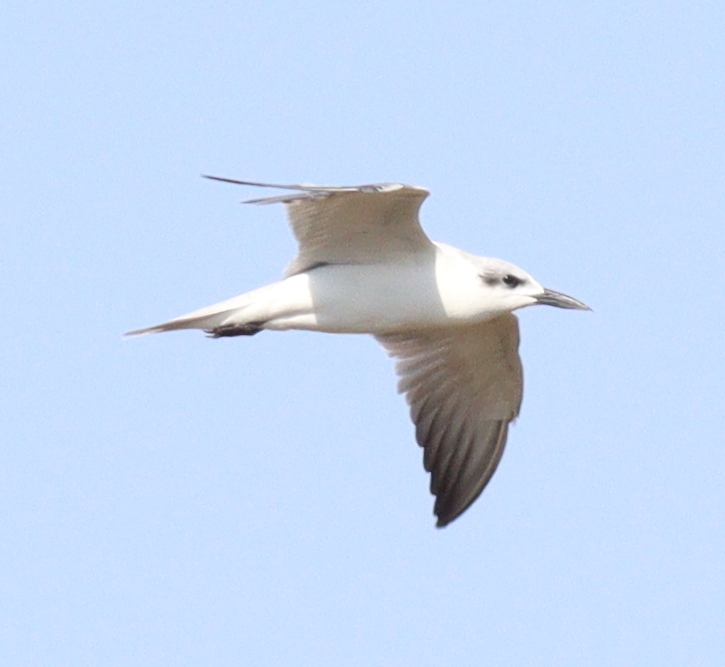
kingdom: Animalia
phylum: Chordata
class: Aves
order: Charadriiformes
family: Laridae
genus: Gelochelidon
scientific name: Gelochelidon nilotica
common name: Gull-billed tern
